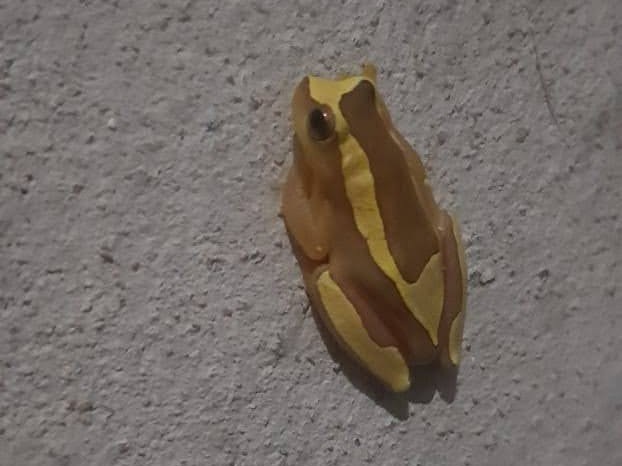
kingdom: Animalia
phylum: Chordata
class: Amphibia
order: Anura
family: Hylidae
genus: Dendropsophus
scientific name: Dendropsophus elegans
